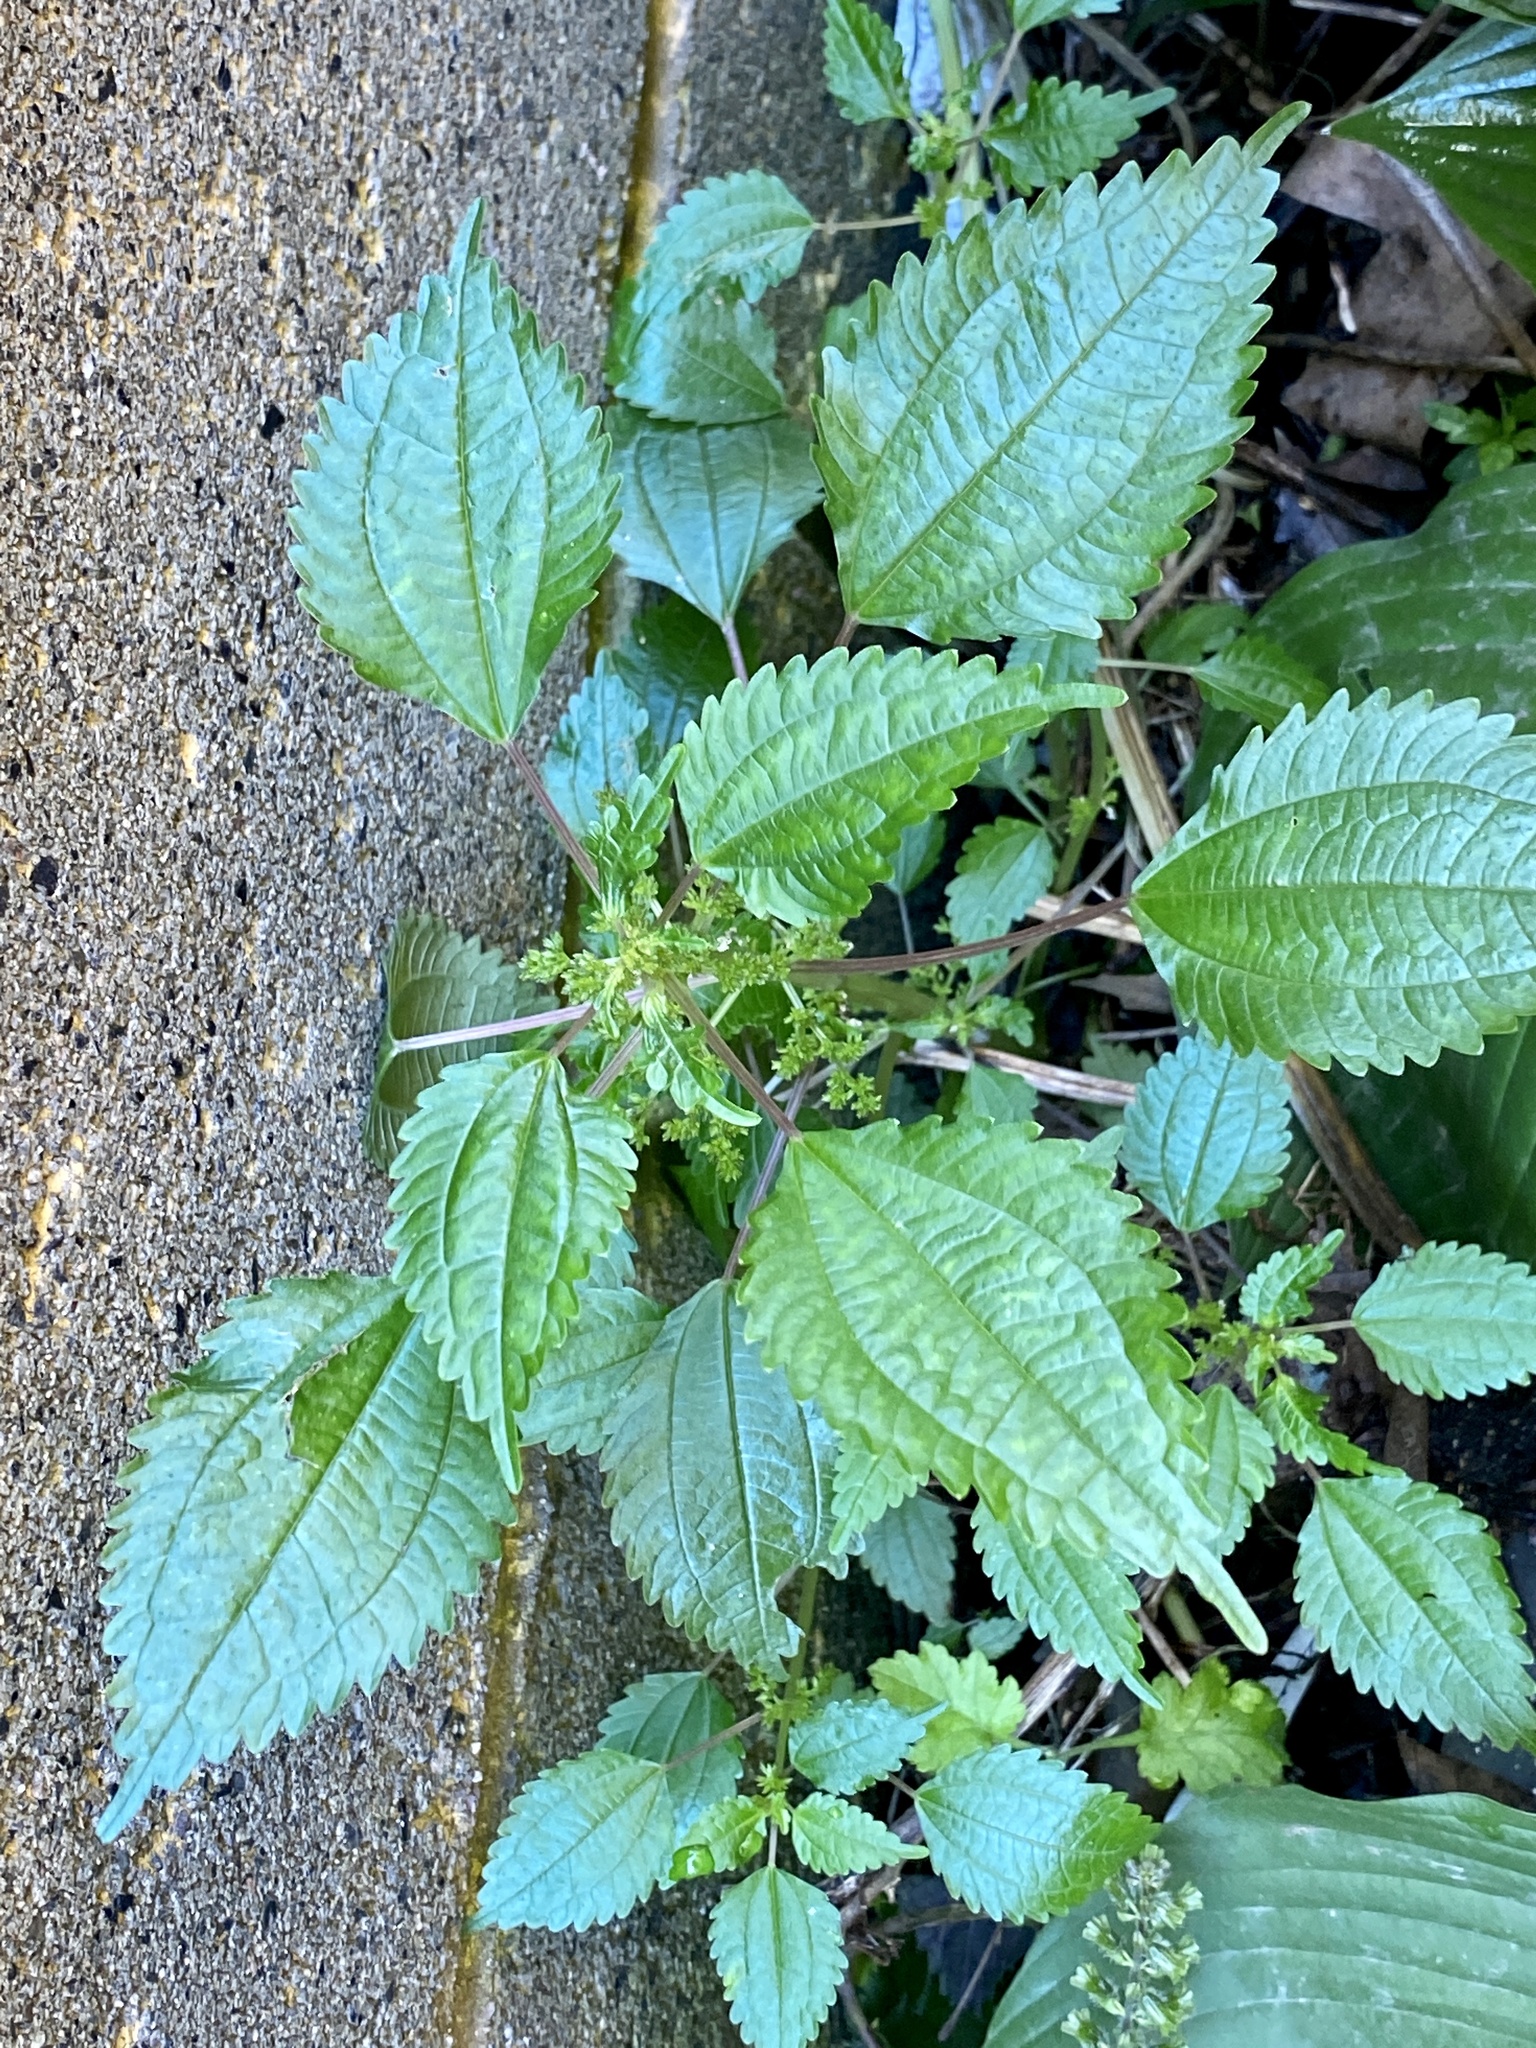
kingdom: Plantae
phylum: Tracheophyta
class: Magnoliopsida
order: Rosales
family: Urticaceae
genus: Pilea
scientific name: Pilea pumila
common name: Clearweed
